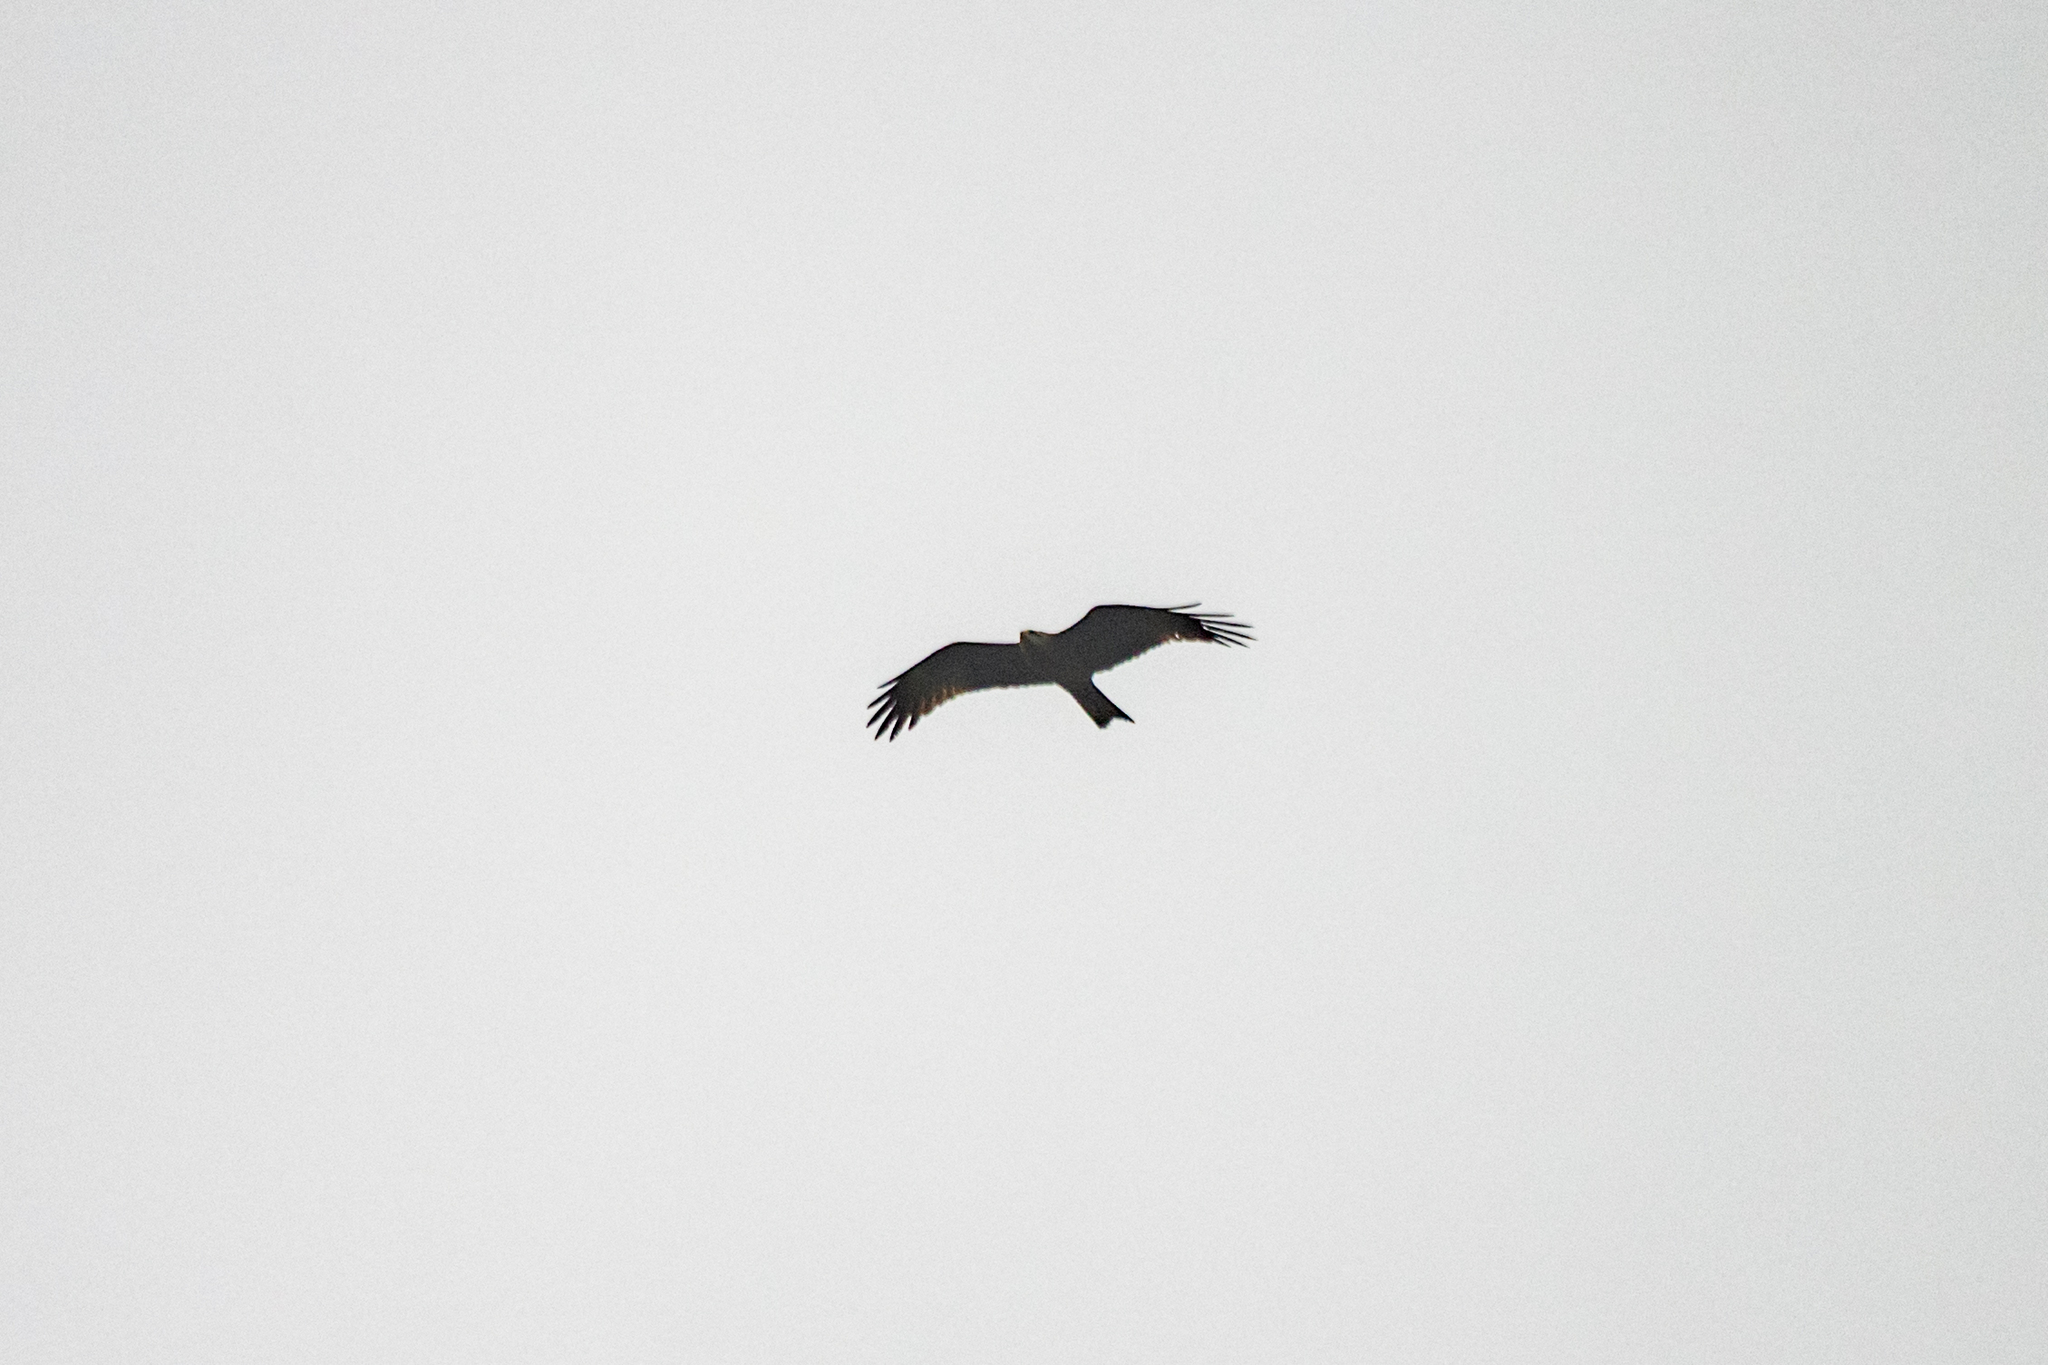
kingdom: Animalia
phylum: Chordata
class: Aves
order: Accipitriformes
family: Accipitridae
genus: Milvus
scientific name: Milvus migrans
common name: Black kite
